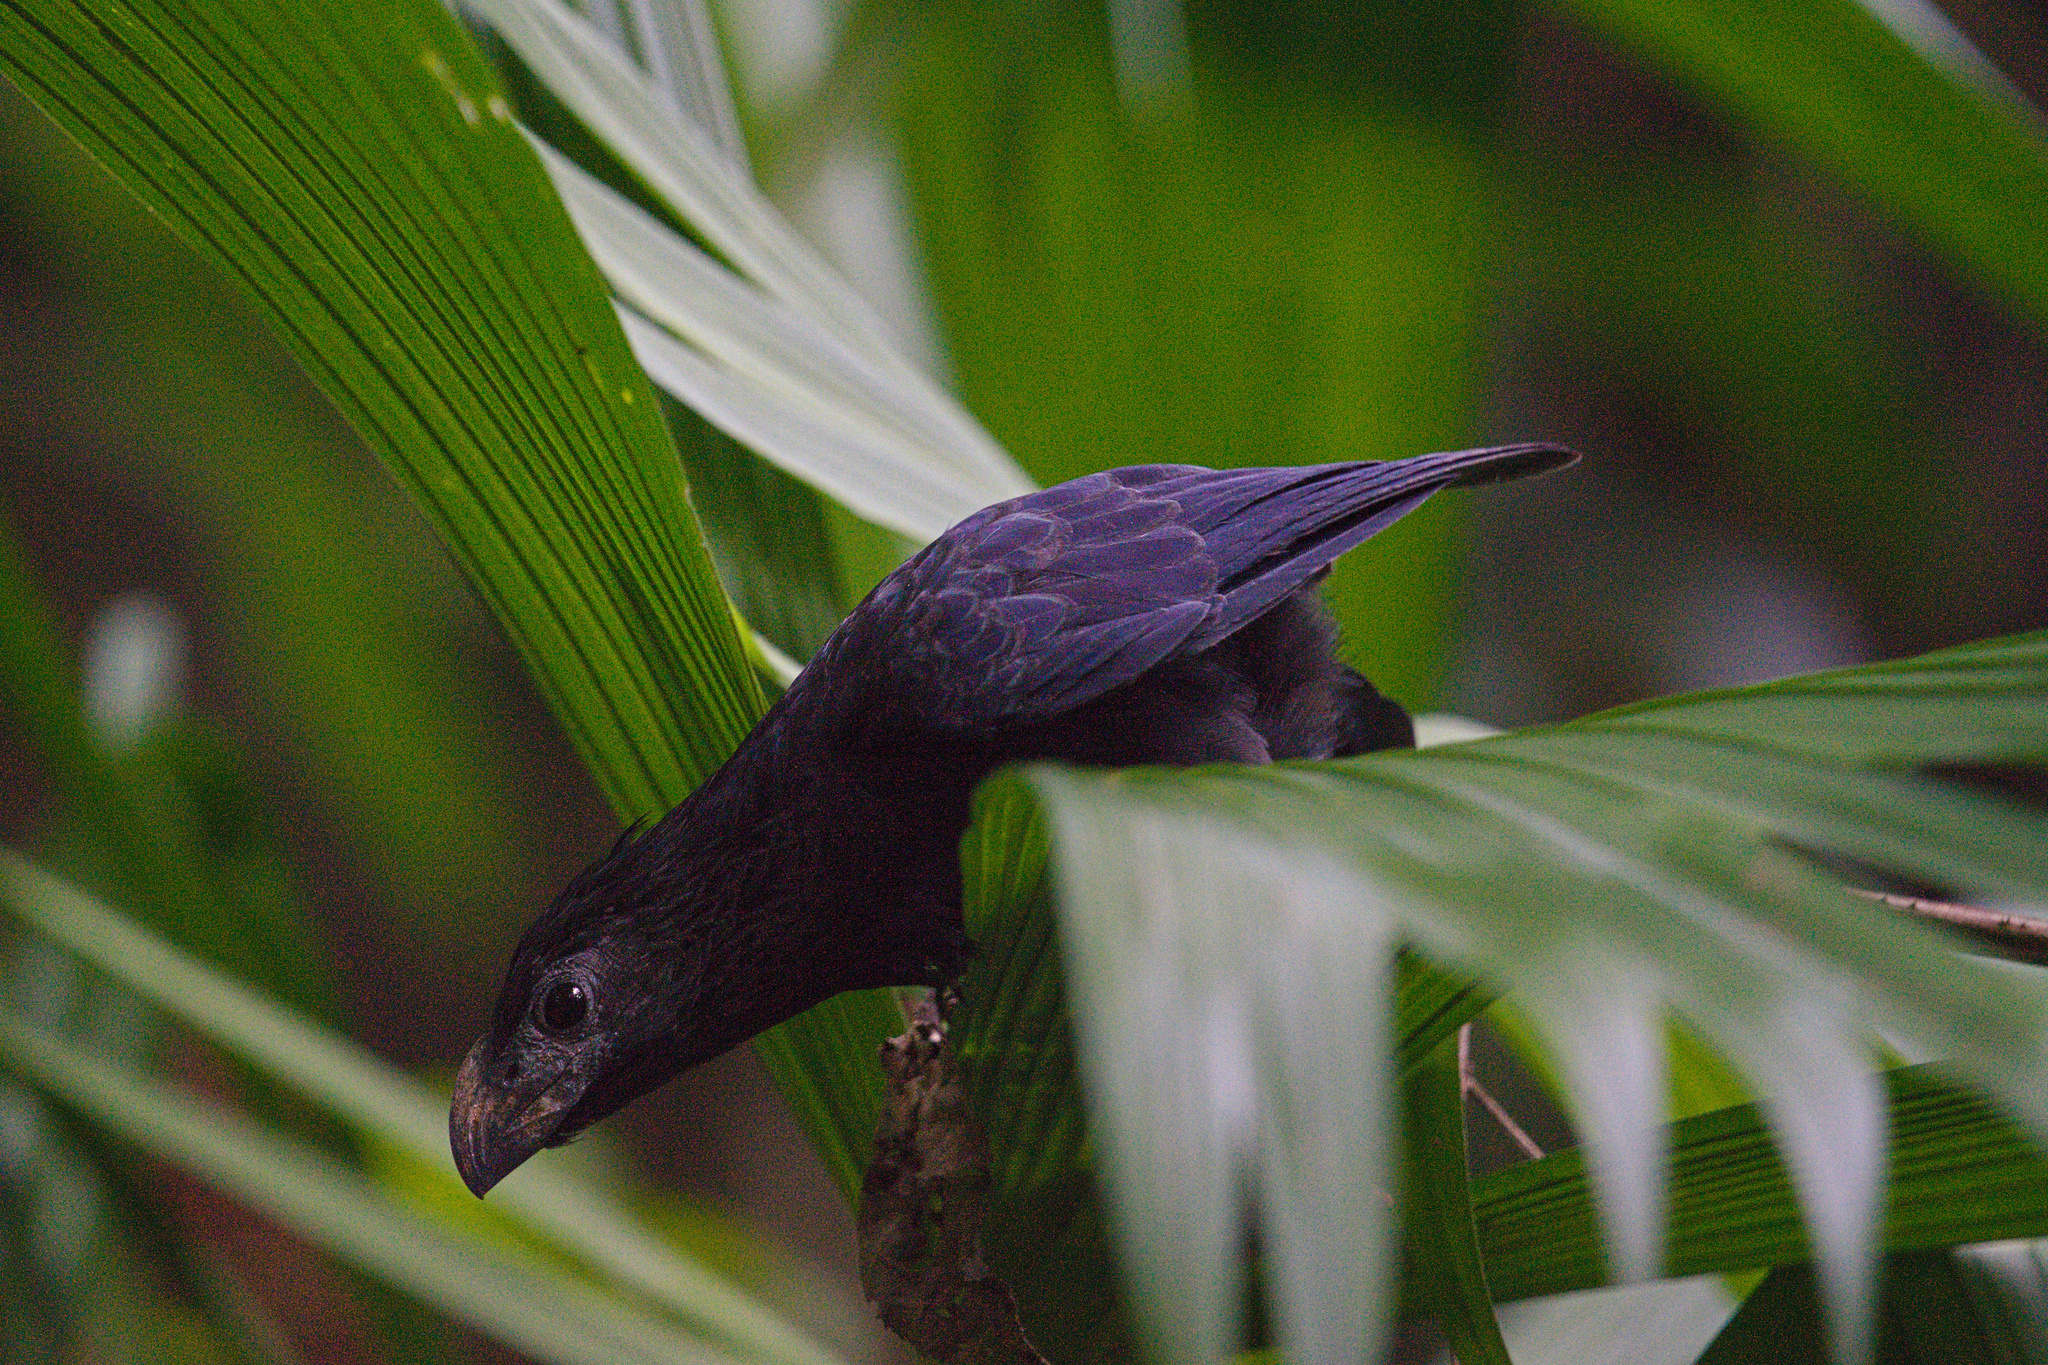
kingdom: Animalia
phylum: Chordata
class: Aves
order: Cuculiformes
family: Cuculidae
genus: Crotophaga
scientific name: Crotophaga sulcirostris
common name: Groove-billed ani
